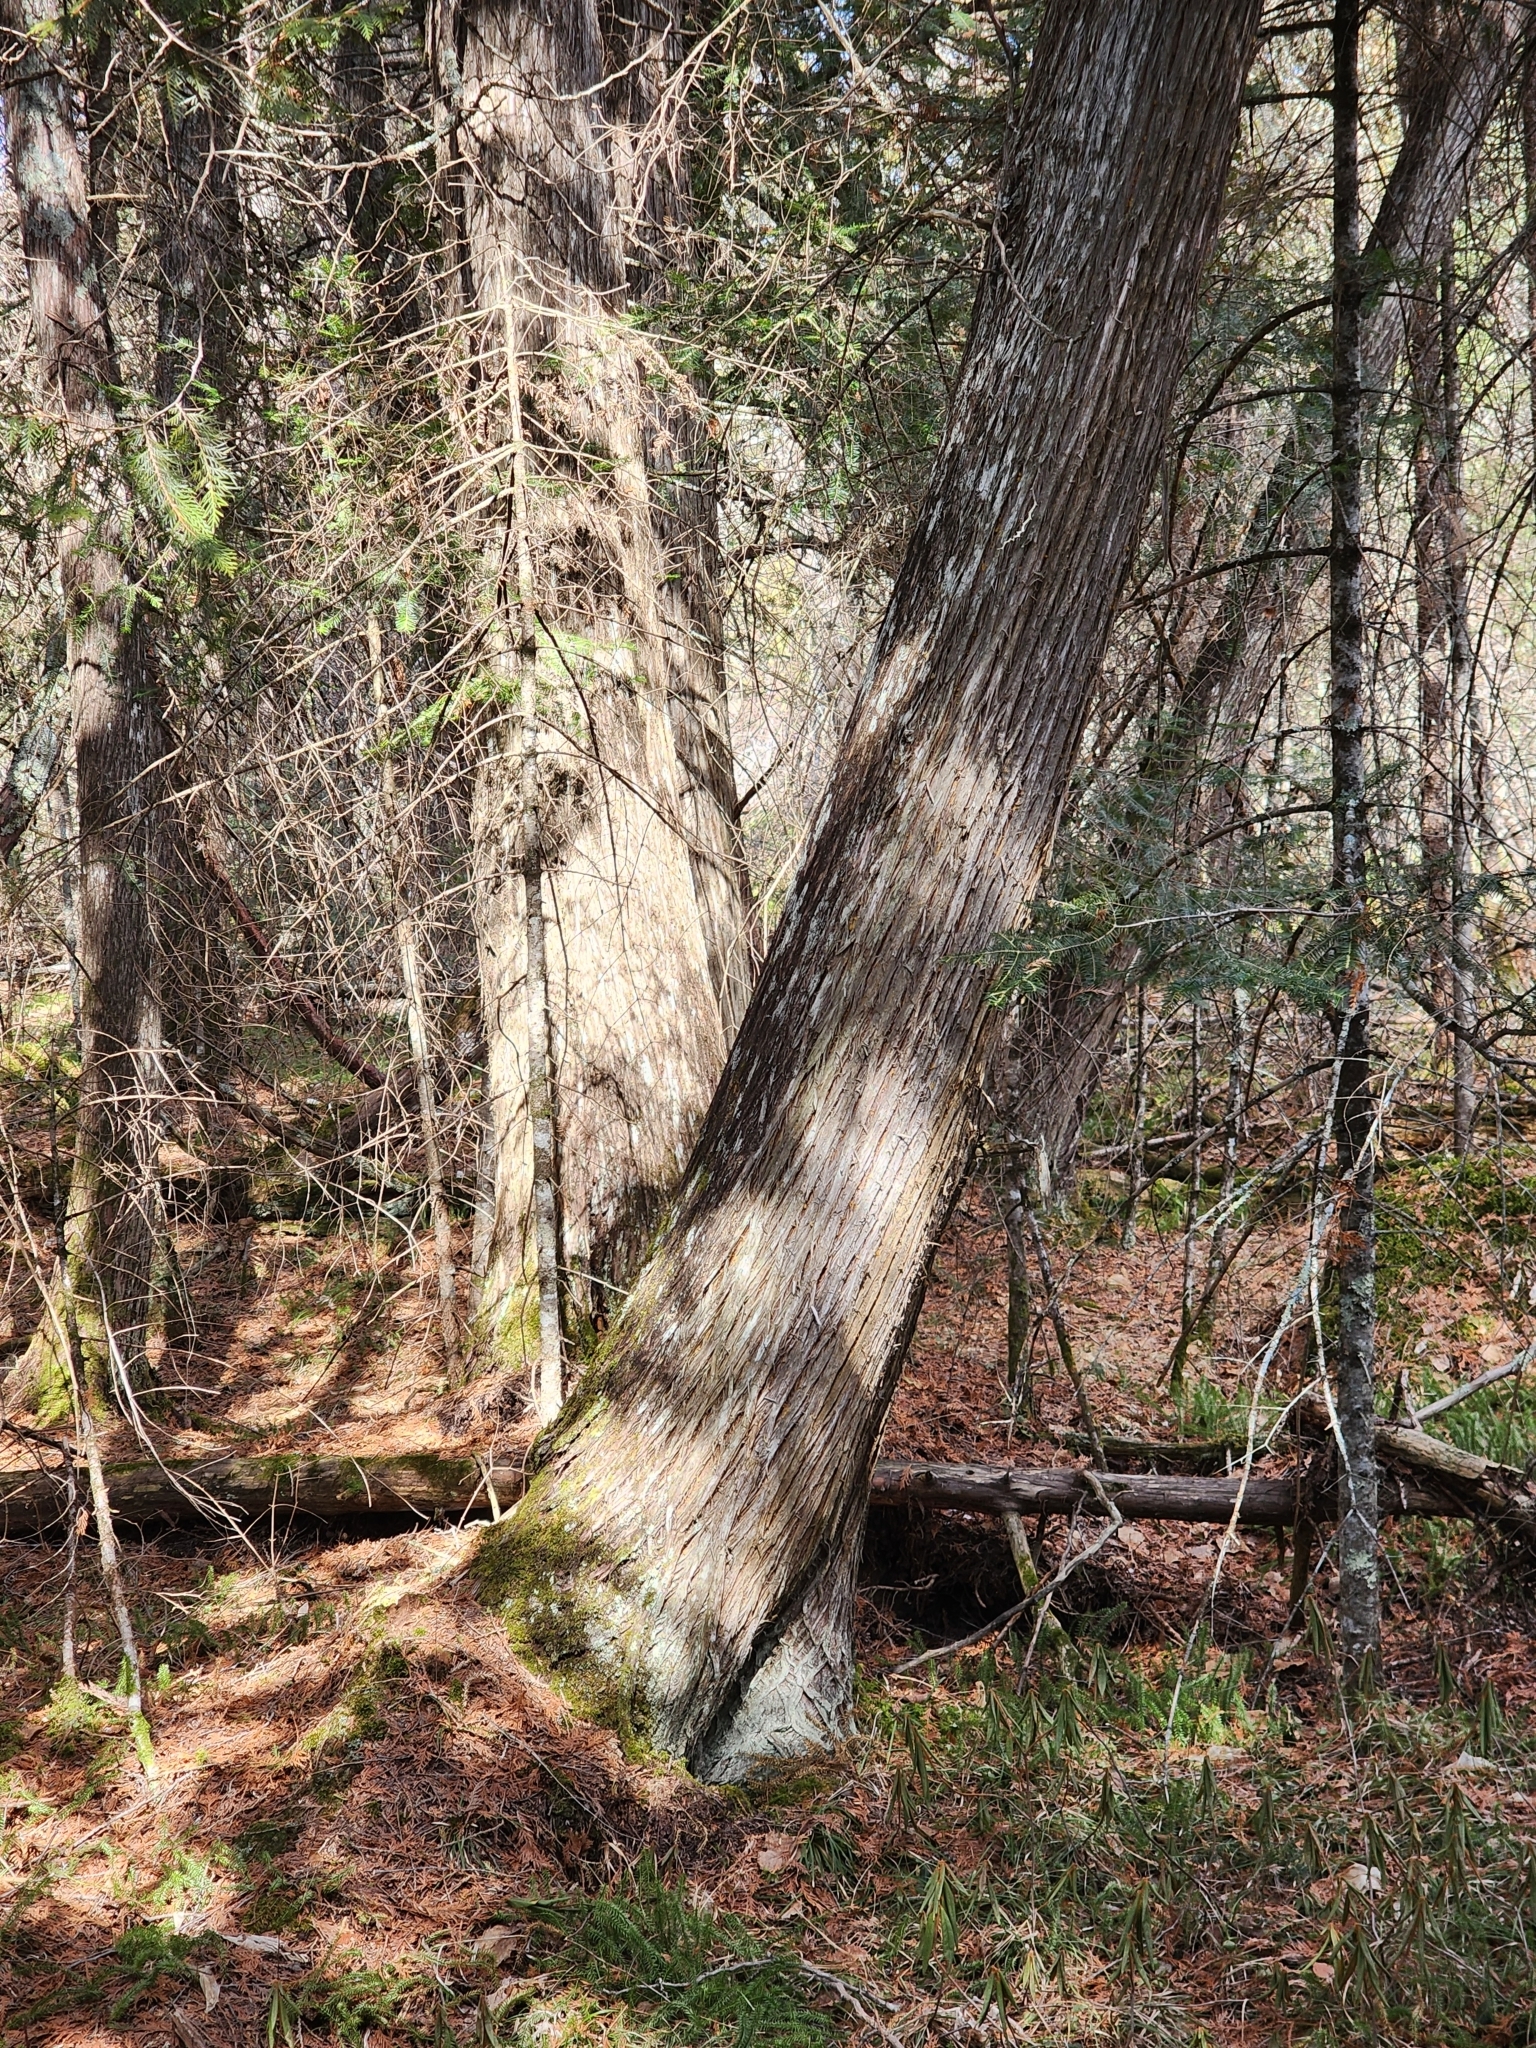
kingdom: Plantae
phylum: Tracheophyta
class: Pinopsida
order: Pinales
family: Cupressaceae
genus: Thuja
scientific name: Thuja occidentalis
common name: Northern white-cedar
